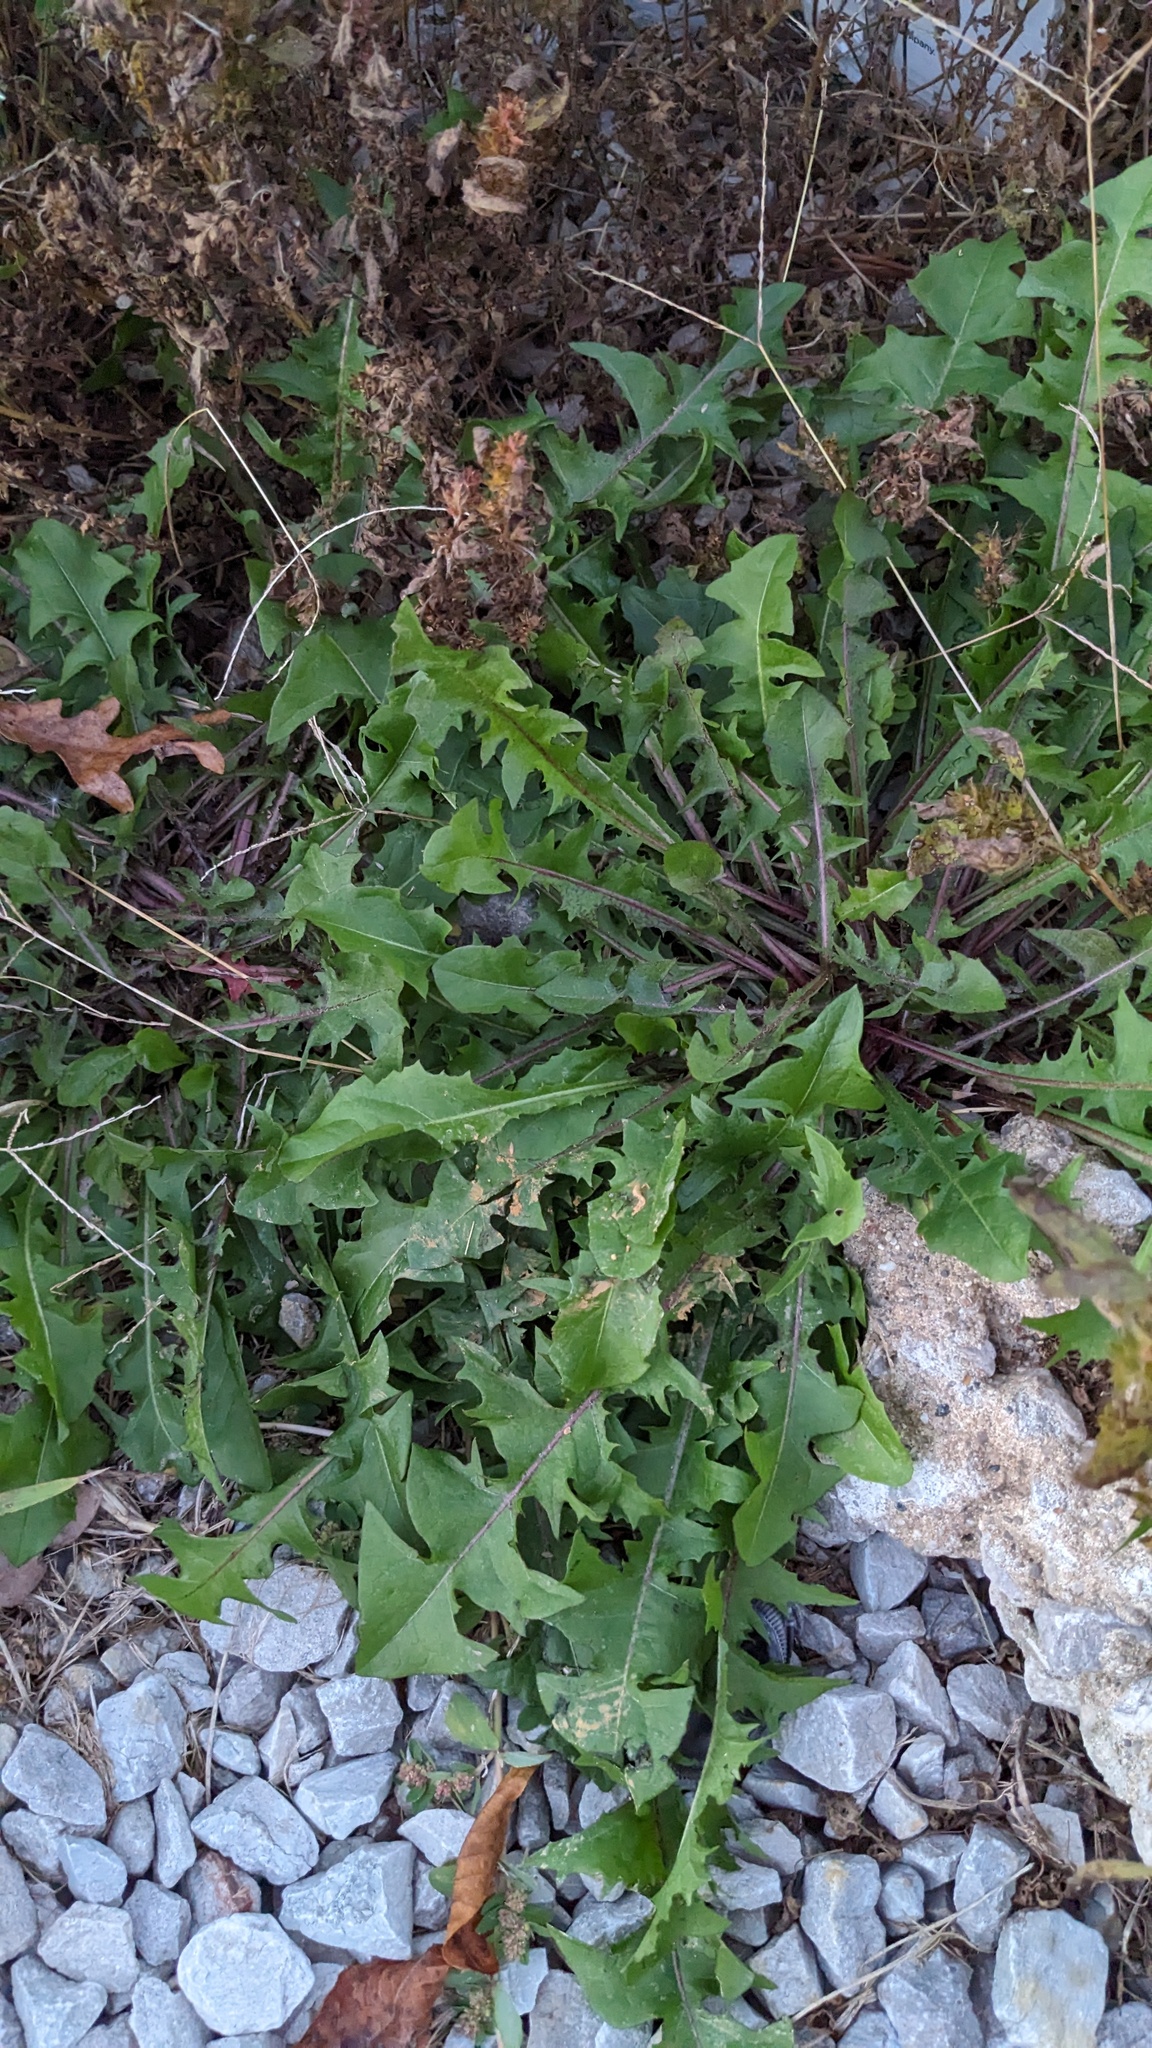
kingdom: Plantae
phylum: Tracheophyta
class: Magnoliopsida
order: Asterales
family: Asteraceae
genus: Taraxacum
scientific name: Taraxacum
